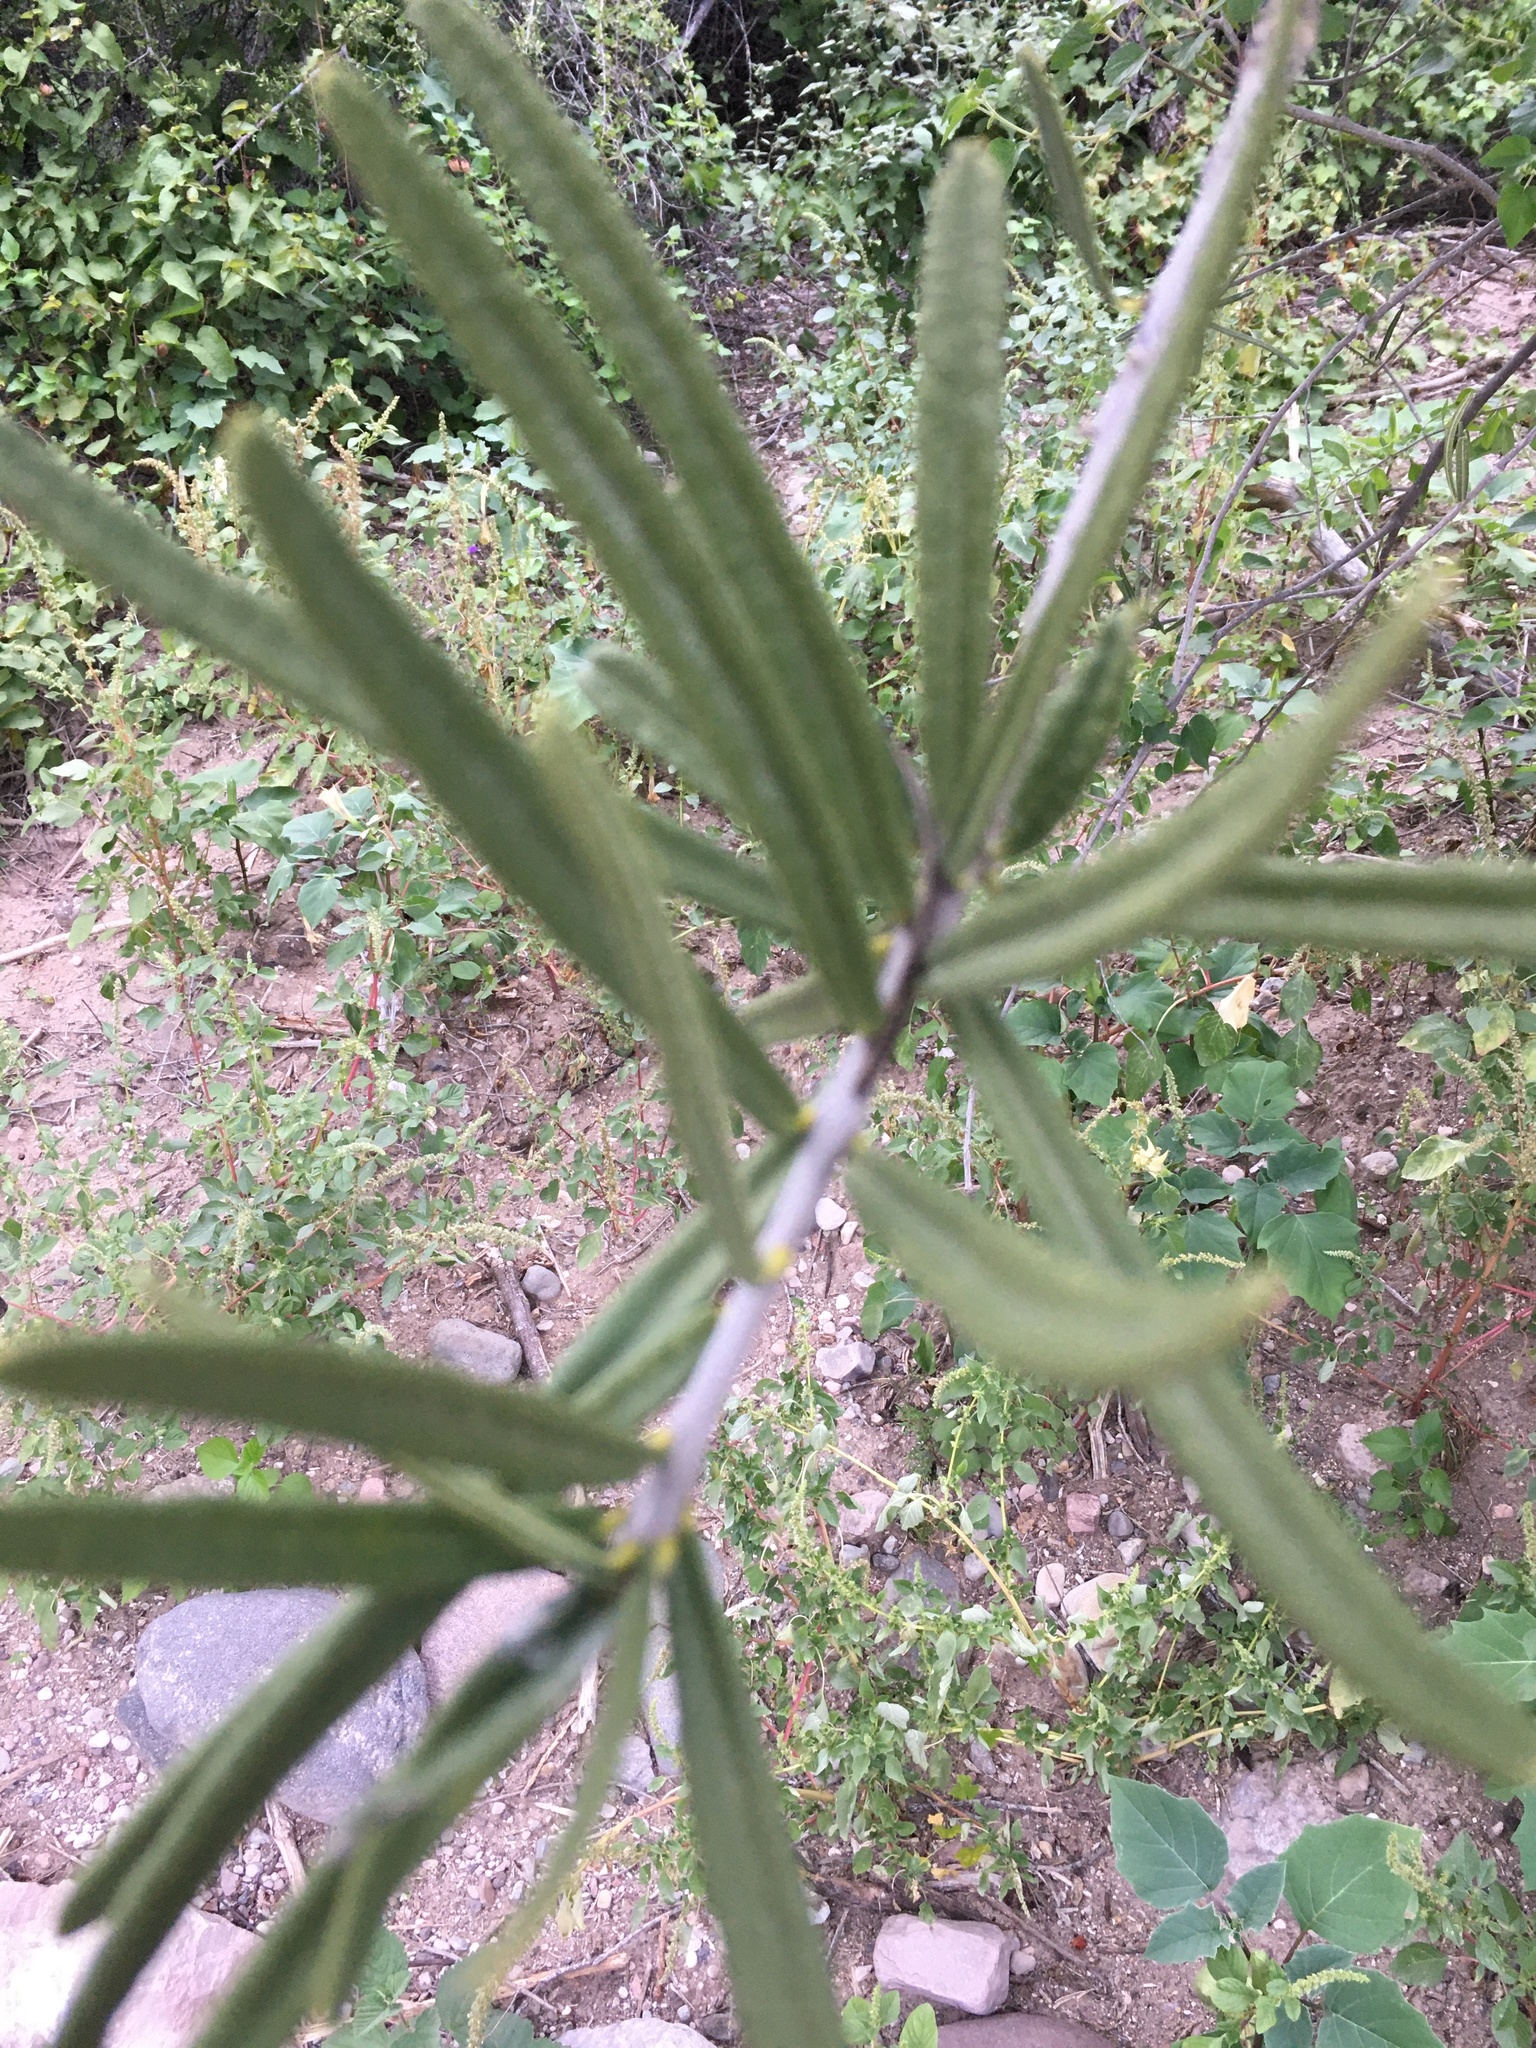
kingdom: Plantae
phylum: Tracheophyta
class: Magnoliopsida
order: Brassicales
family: Stixaceae
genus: Forchhammeria
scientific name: Forchhammeria watsonii
